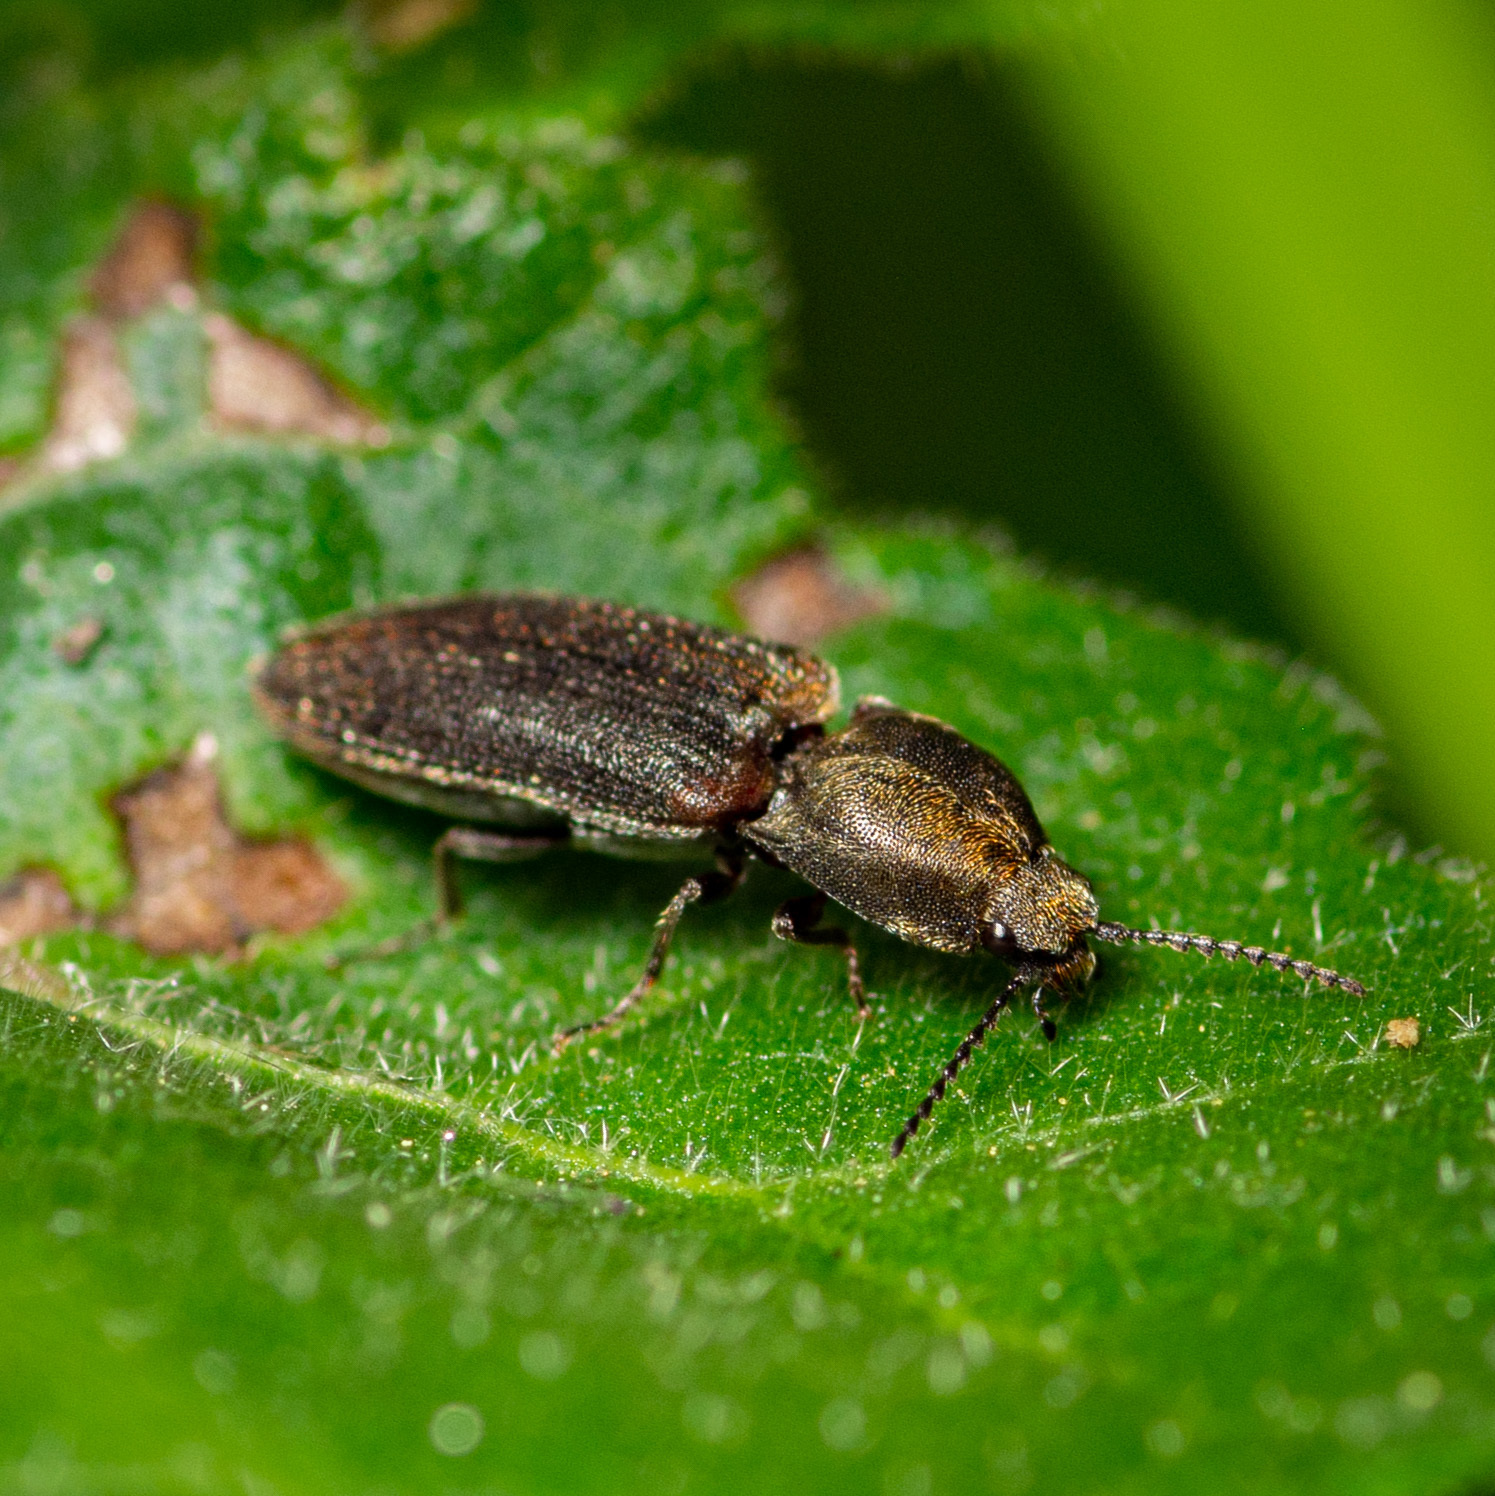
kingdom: Animalia
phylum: Arthropoda
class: Insecta
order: Coleoptera
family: Elateridae
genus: Limonius
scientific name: Limonius auripilis
